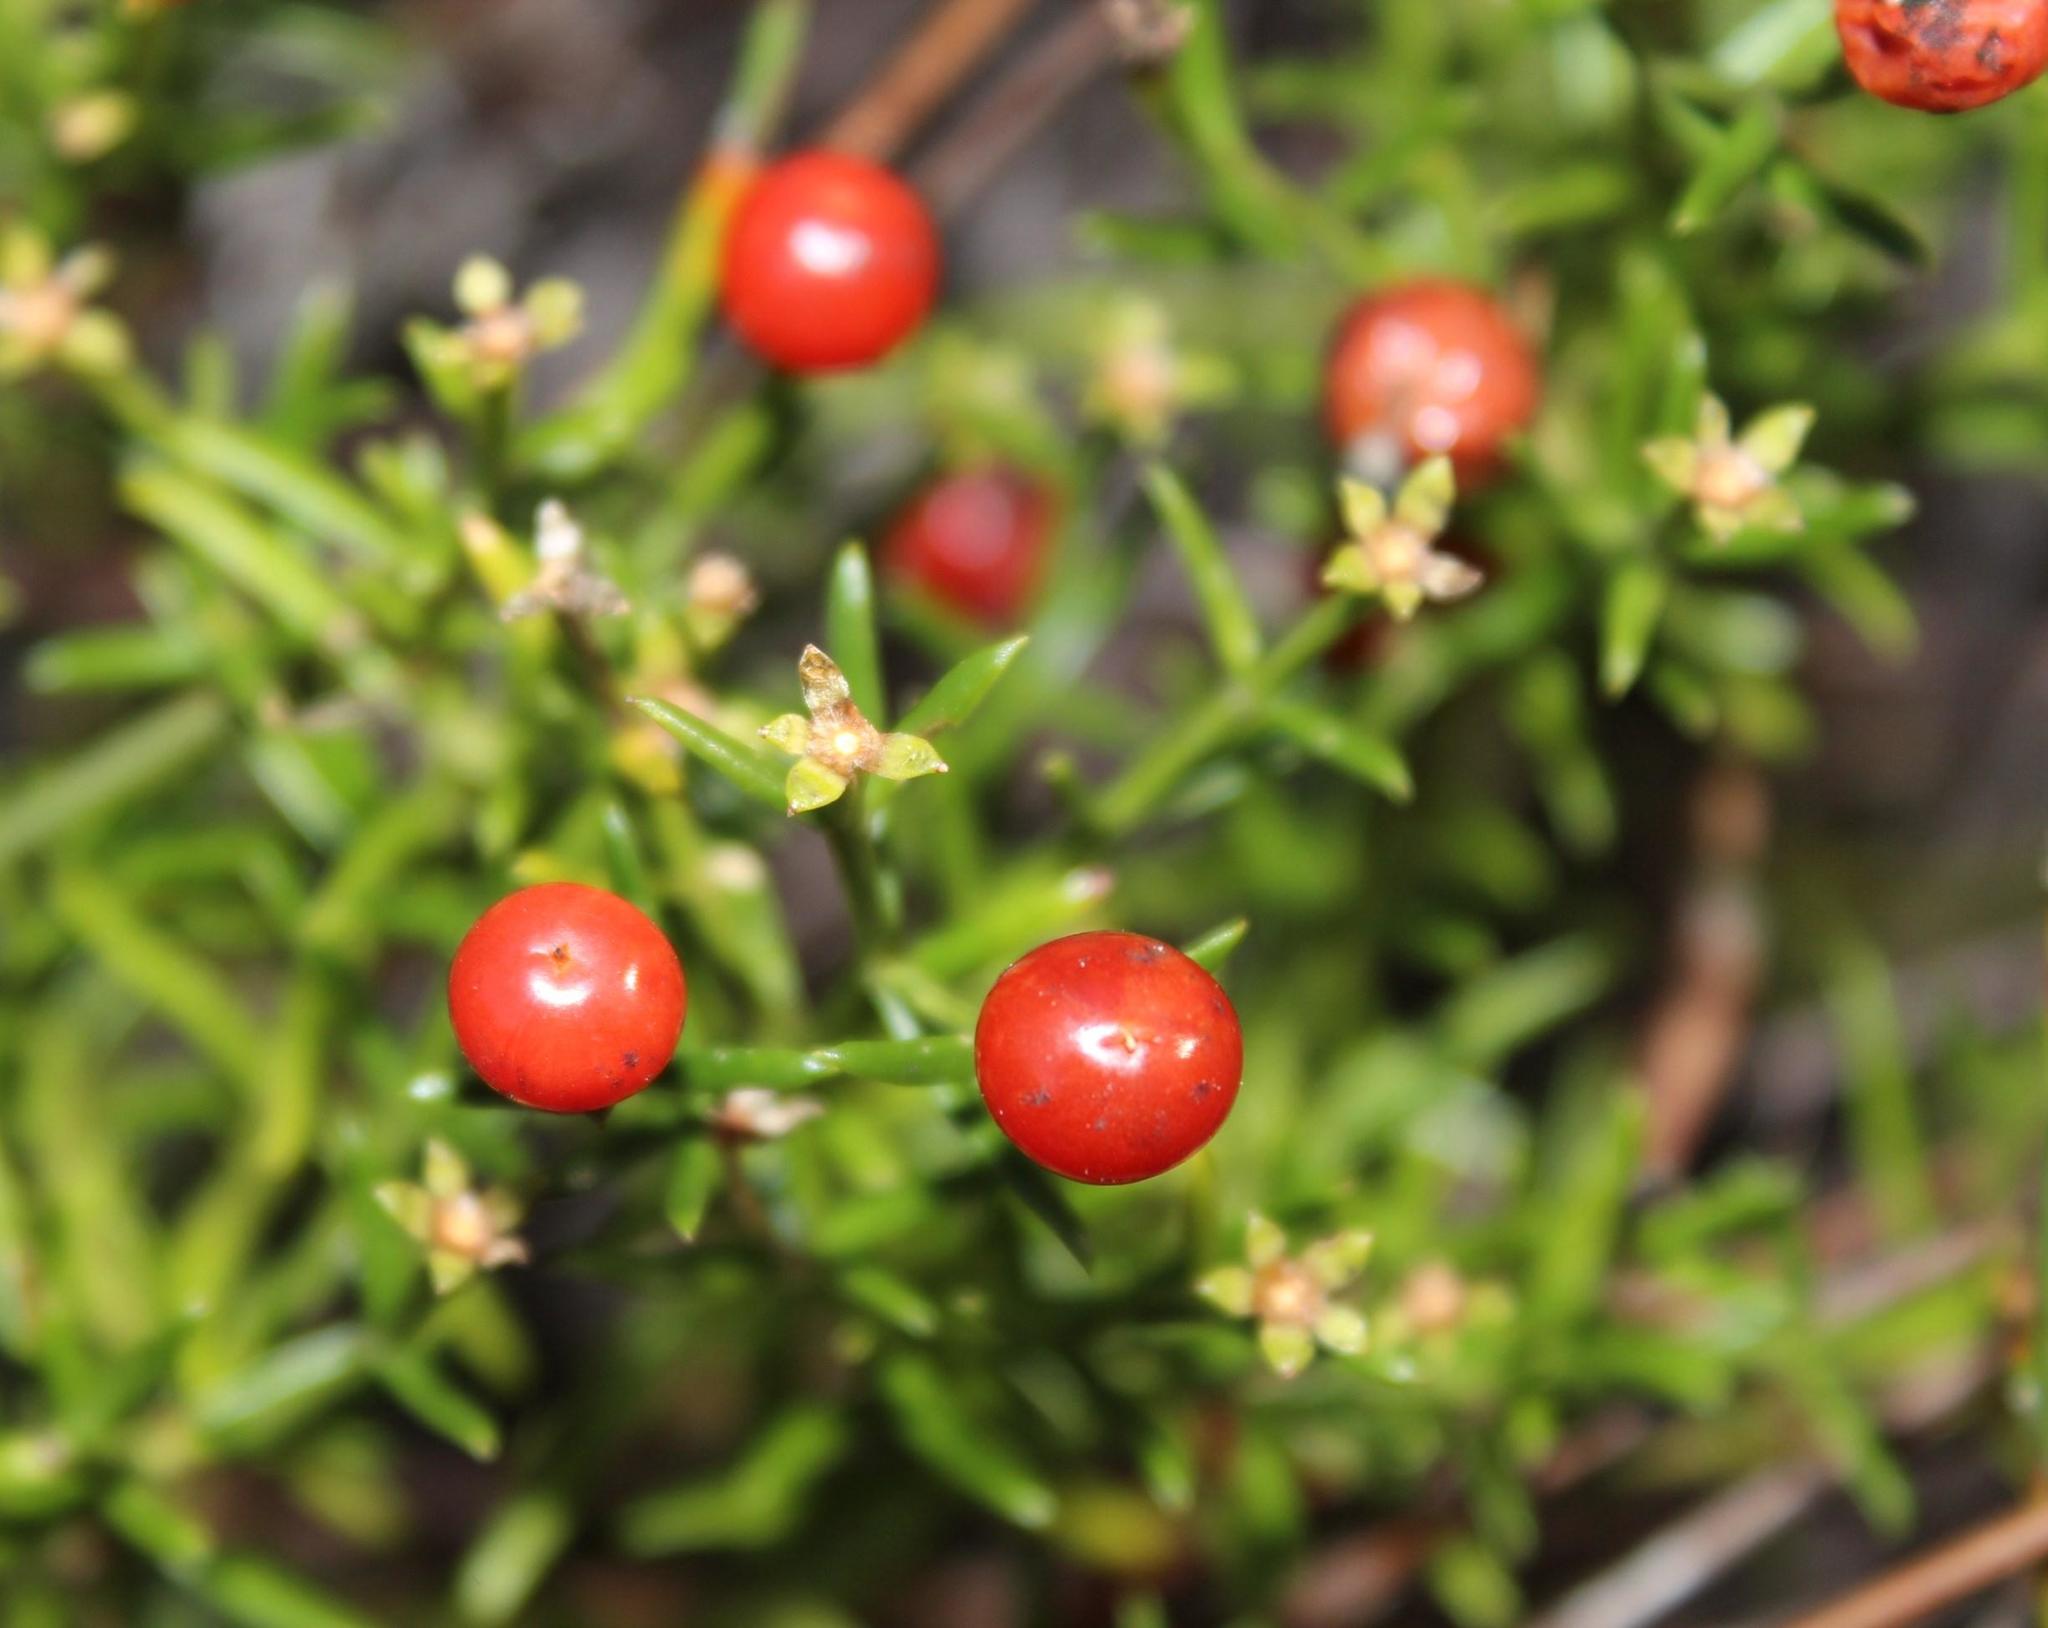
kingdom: Plantae
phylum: Tracheophyta
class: Magnoliopsida
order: Gentianales
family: Gentianaceae
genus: Chironia
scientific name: Chironia baccifera
